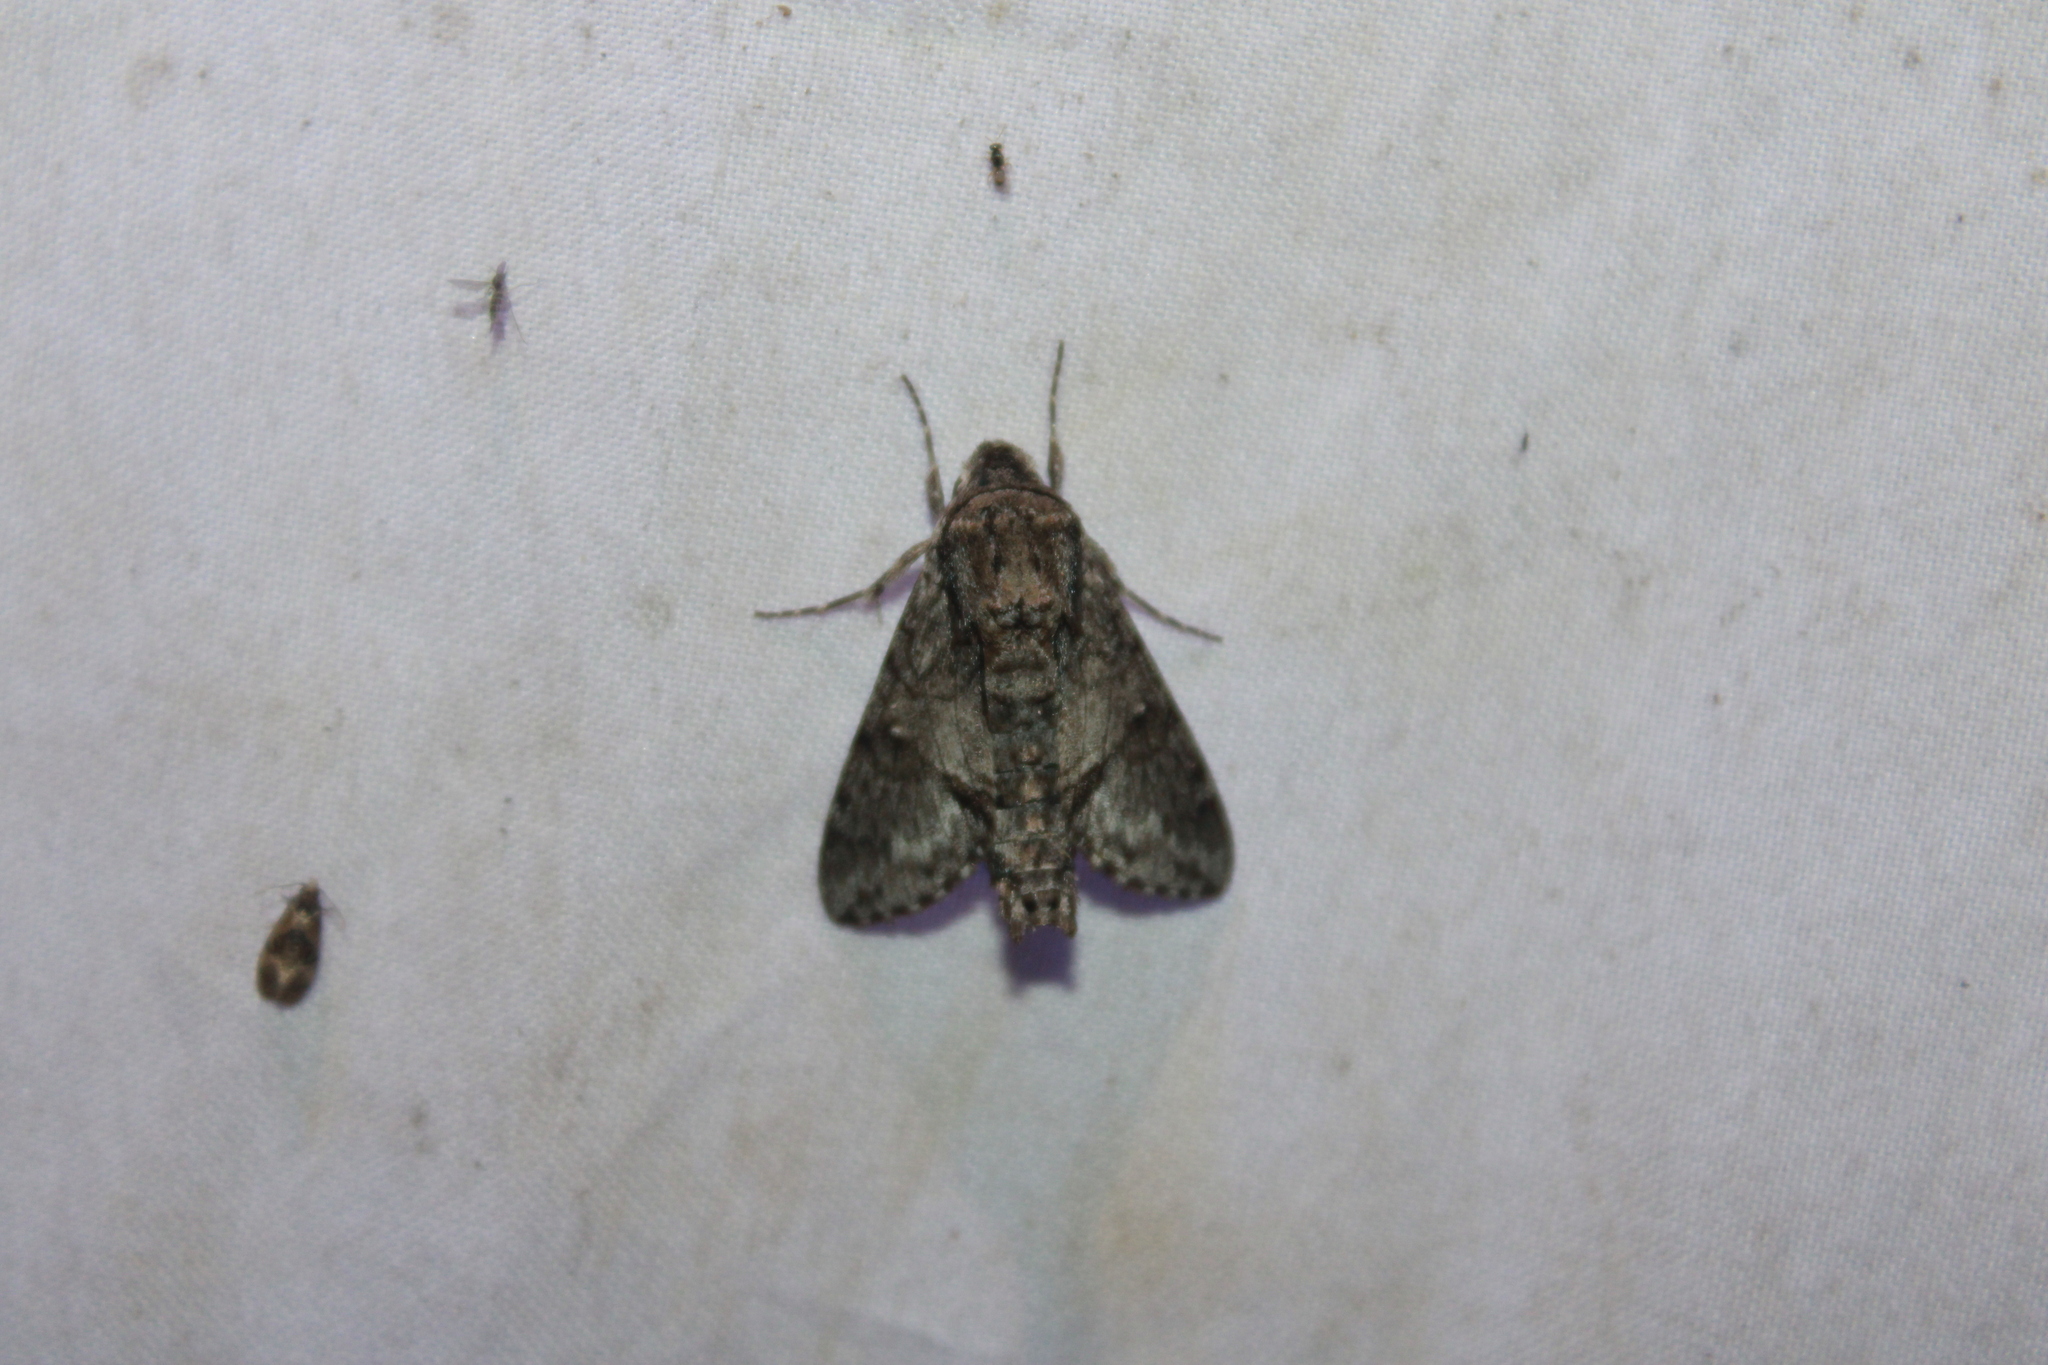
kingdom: Animalia
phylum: Arthropoda
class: Insecta
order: Lepidoptera
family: Sphingidae
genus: Cautethia
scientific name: Cautethia grotei
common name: Grote's sphinx
